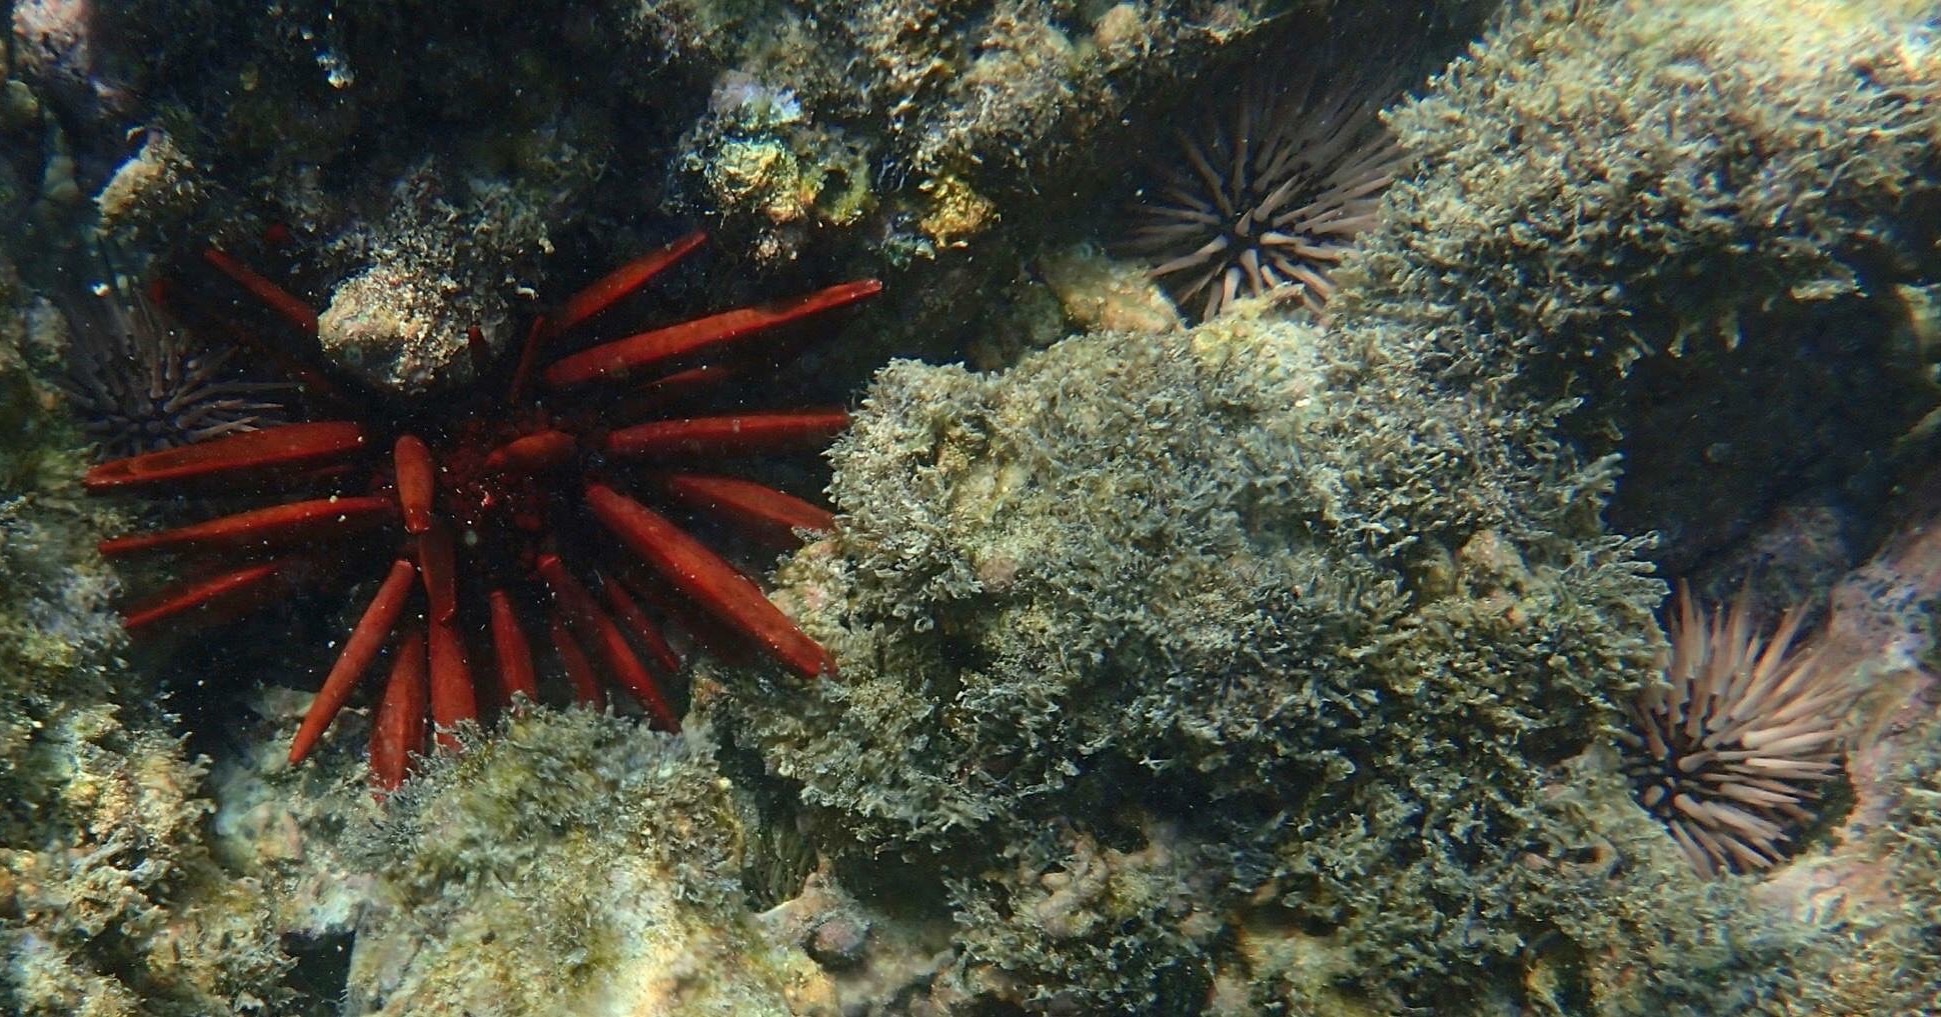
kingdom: Animalia
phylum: Echinodermata
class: Echinoidea
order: Camarodonta
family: Echinometridae
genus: Heterocentrotus
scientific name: Heterocentrotus mamillatus
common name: Slate pencil urchin
